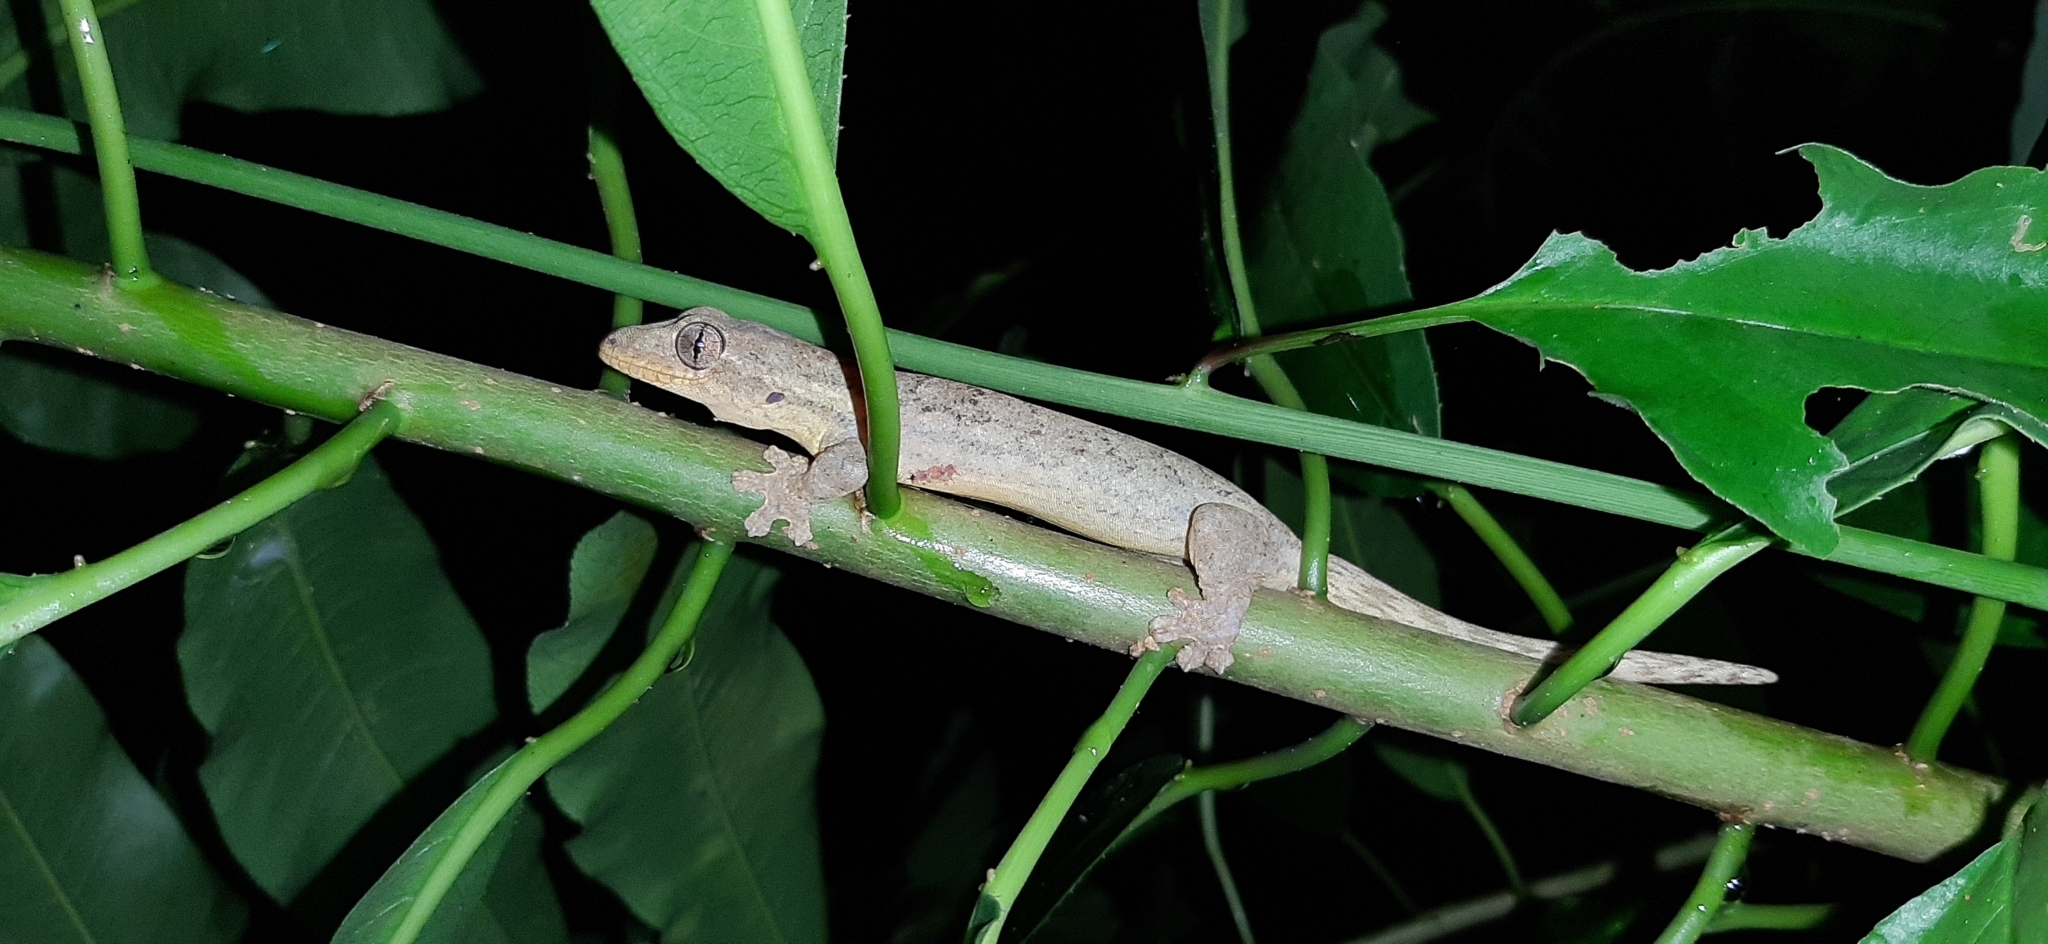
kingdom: Animalia
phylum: Chordata
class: Squamata
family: Phyllodactylidae
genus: Thecadactylus
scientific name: Thecadactylus rapicauda
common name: Turnip-tailed gecko
